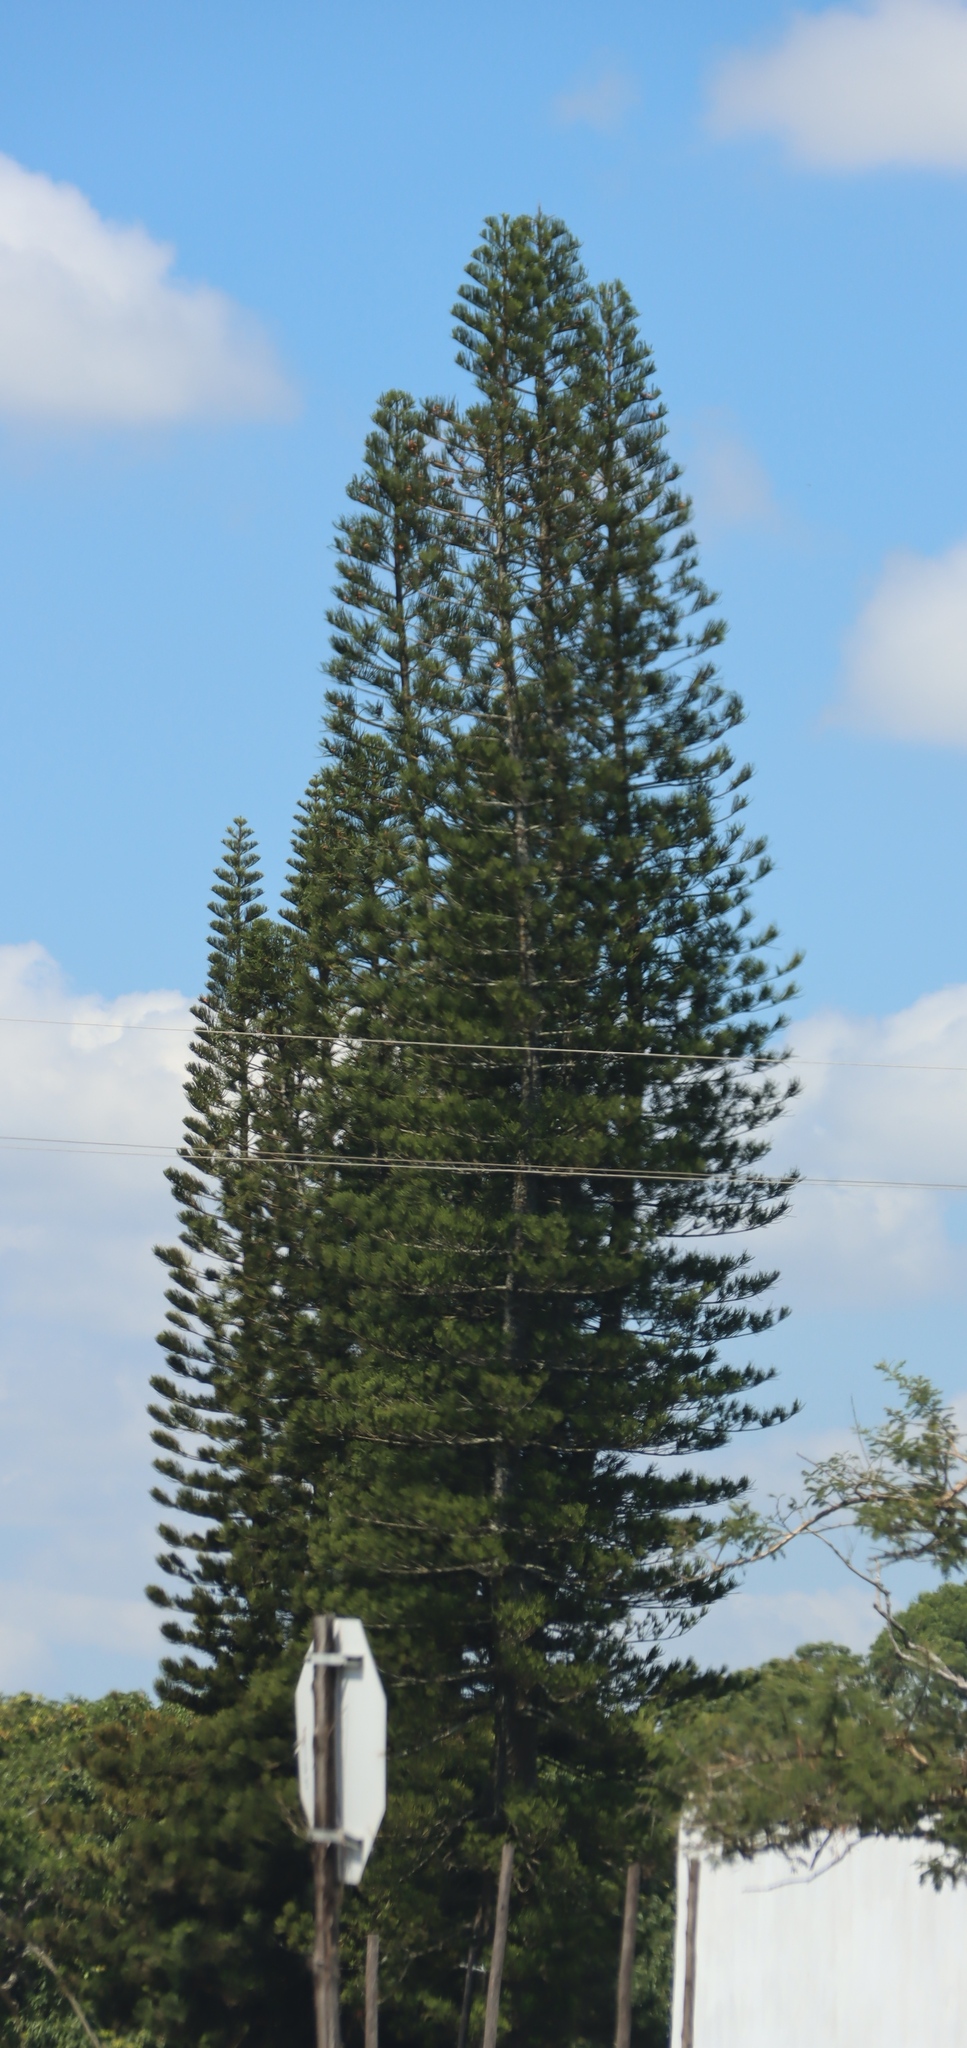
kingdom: Plantae
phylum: Tracheophyta
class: Pinopsida
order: Pinales
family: Araucariaceae
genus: Araucaria
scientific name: Araucaria columnaris
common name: Coral reef araucaria
